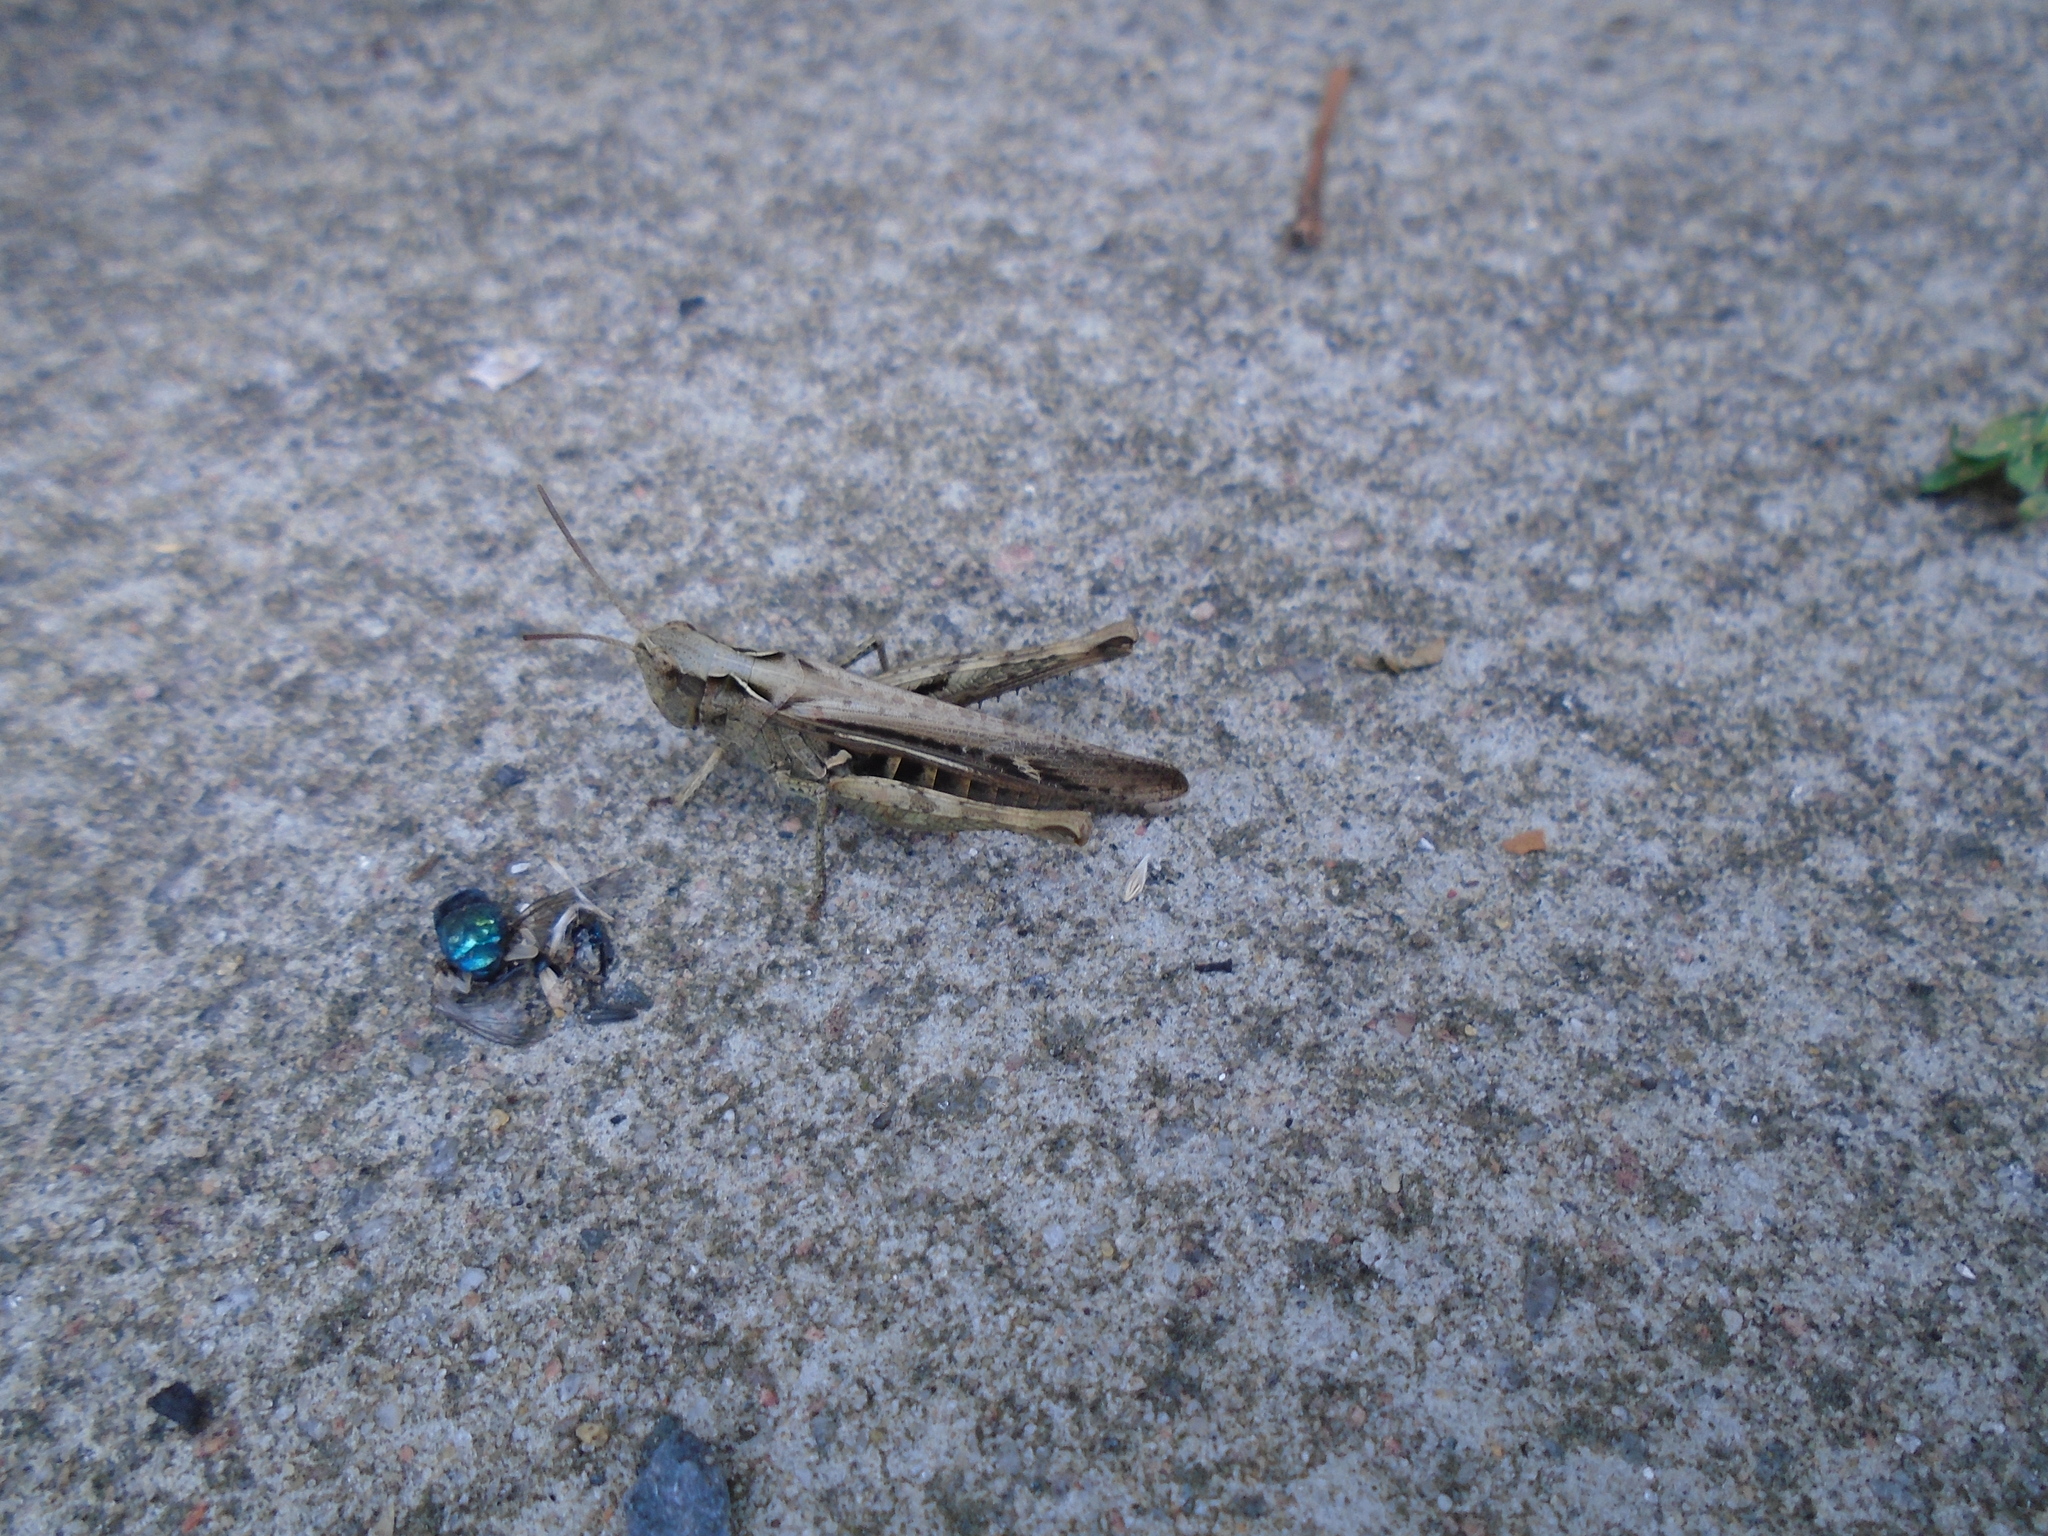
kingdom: Animalia
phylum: Arthropoda
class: Insecta
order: Orthoptera
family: Acrididae
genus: Chorthippus
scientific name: Chorthippus brunneus
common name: Field grasshopper
